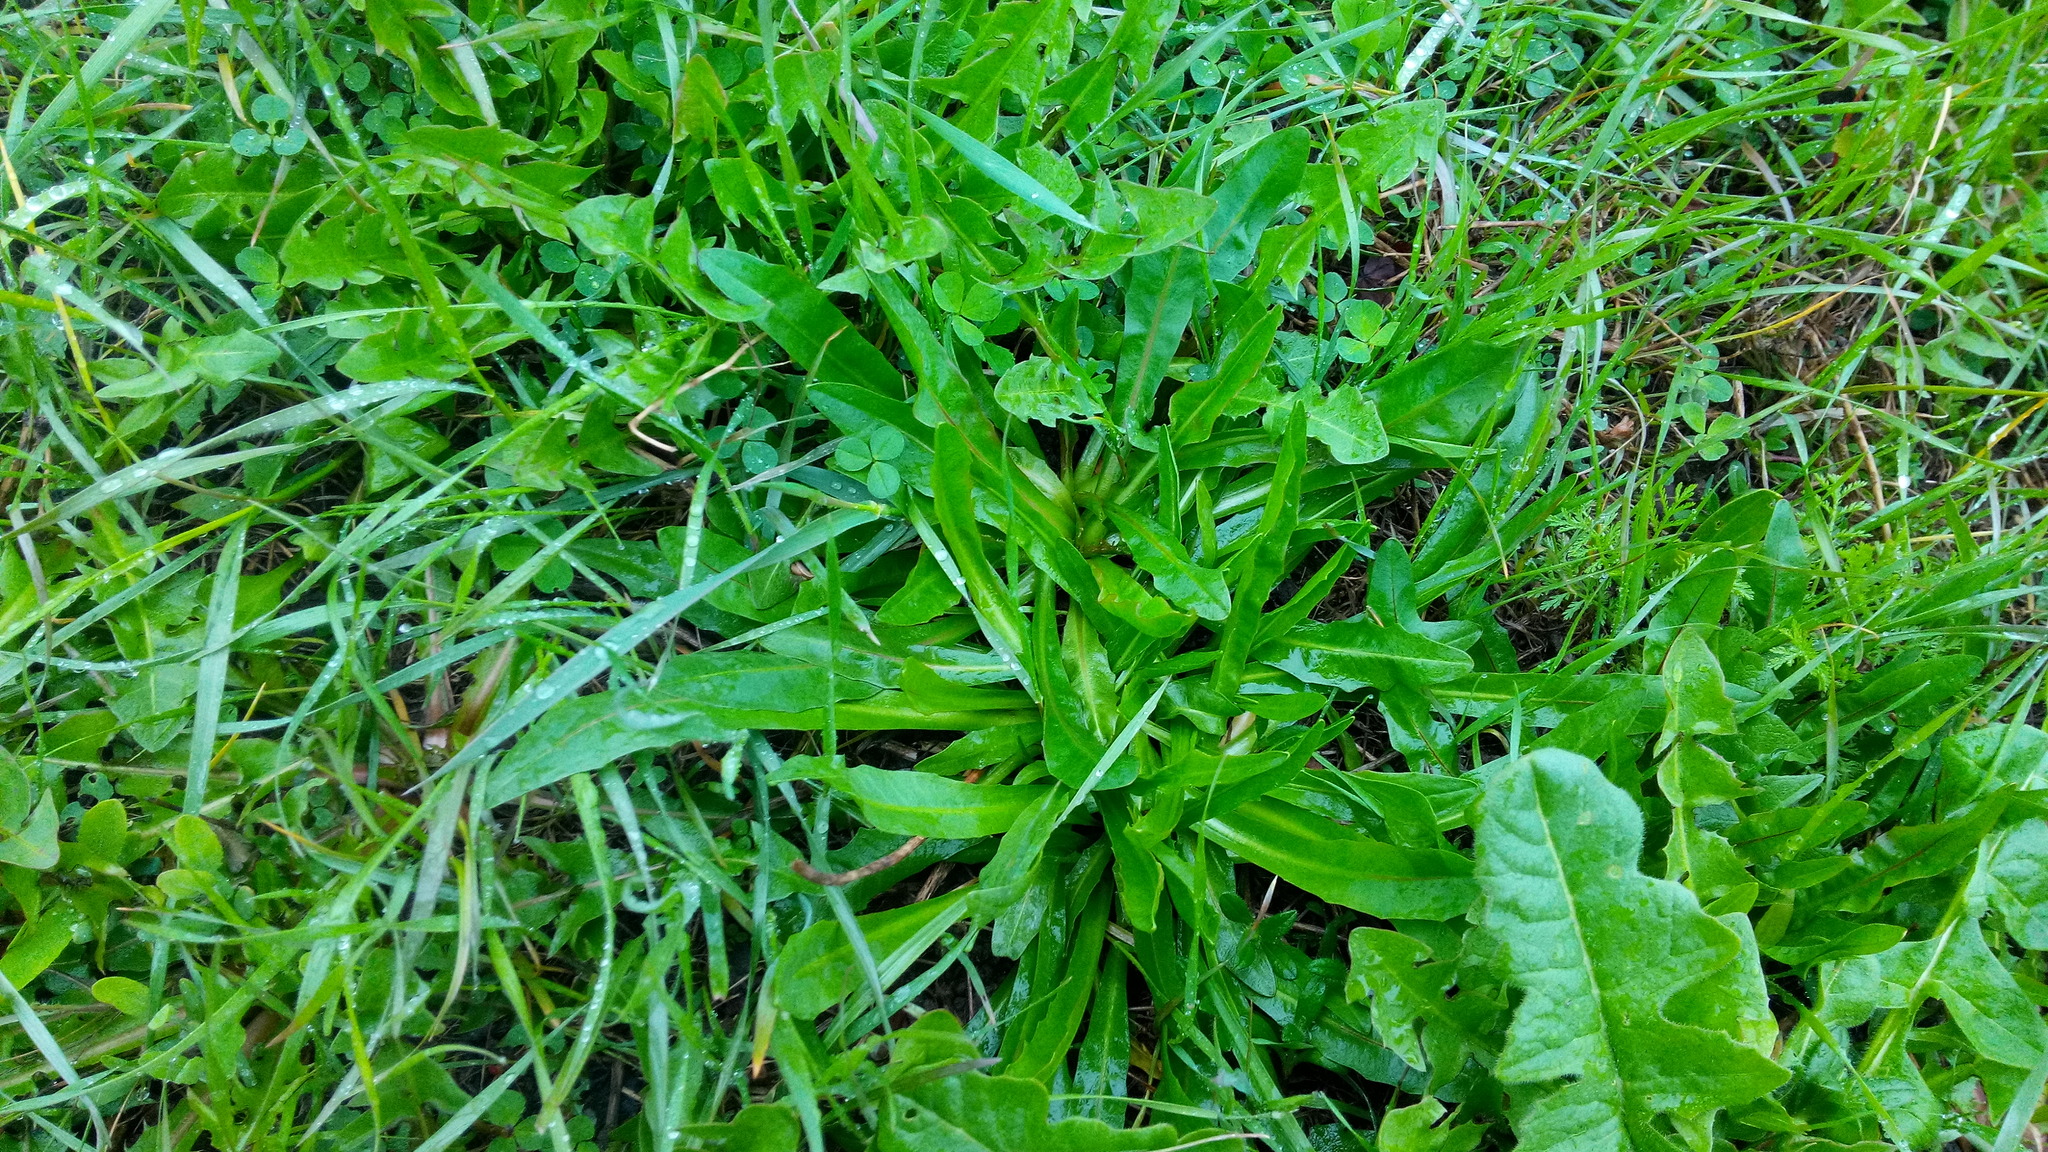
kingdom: Plantae
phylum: Tracheophyta
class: Magnoliopsida
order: Asterales
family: Asteraceae
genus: Cichorium
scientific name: Cichorium intybus
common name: Chicory
